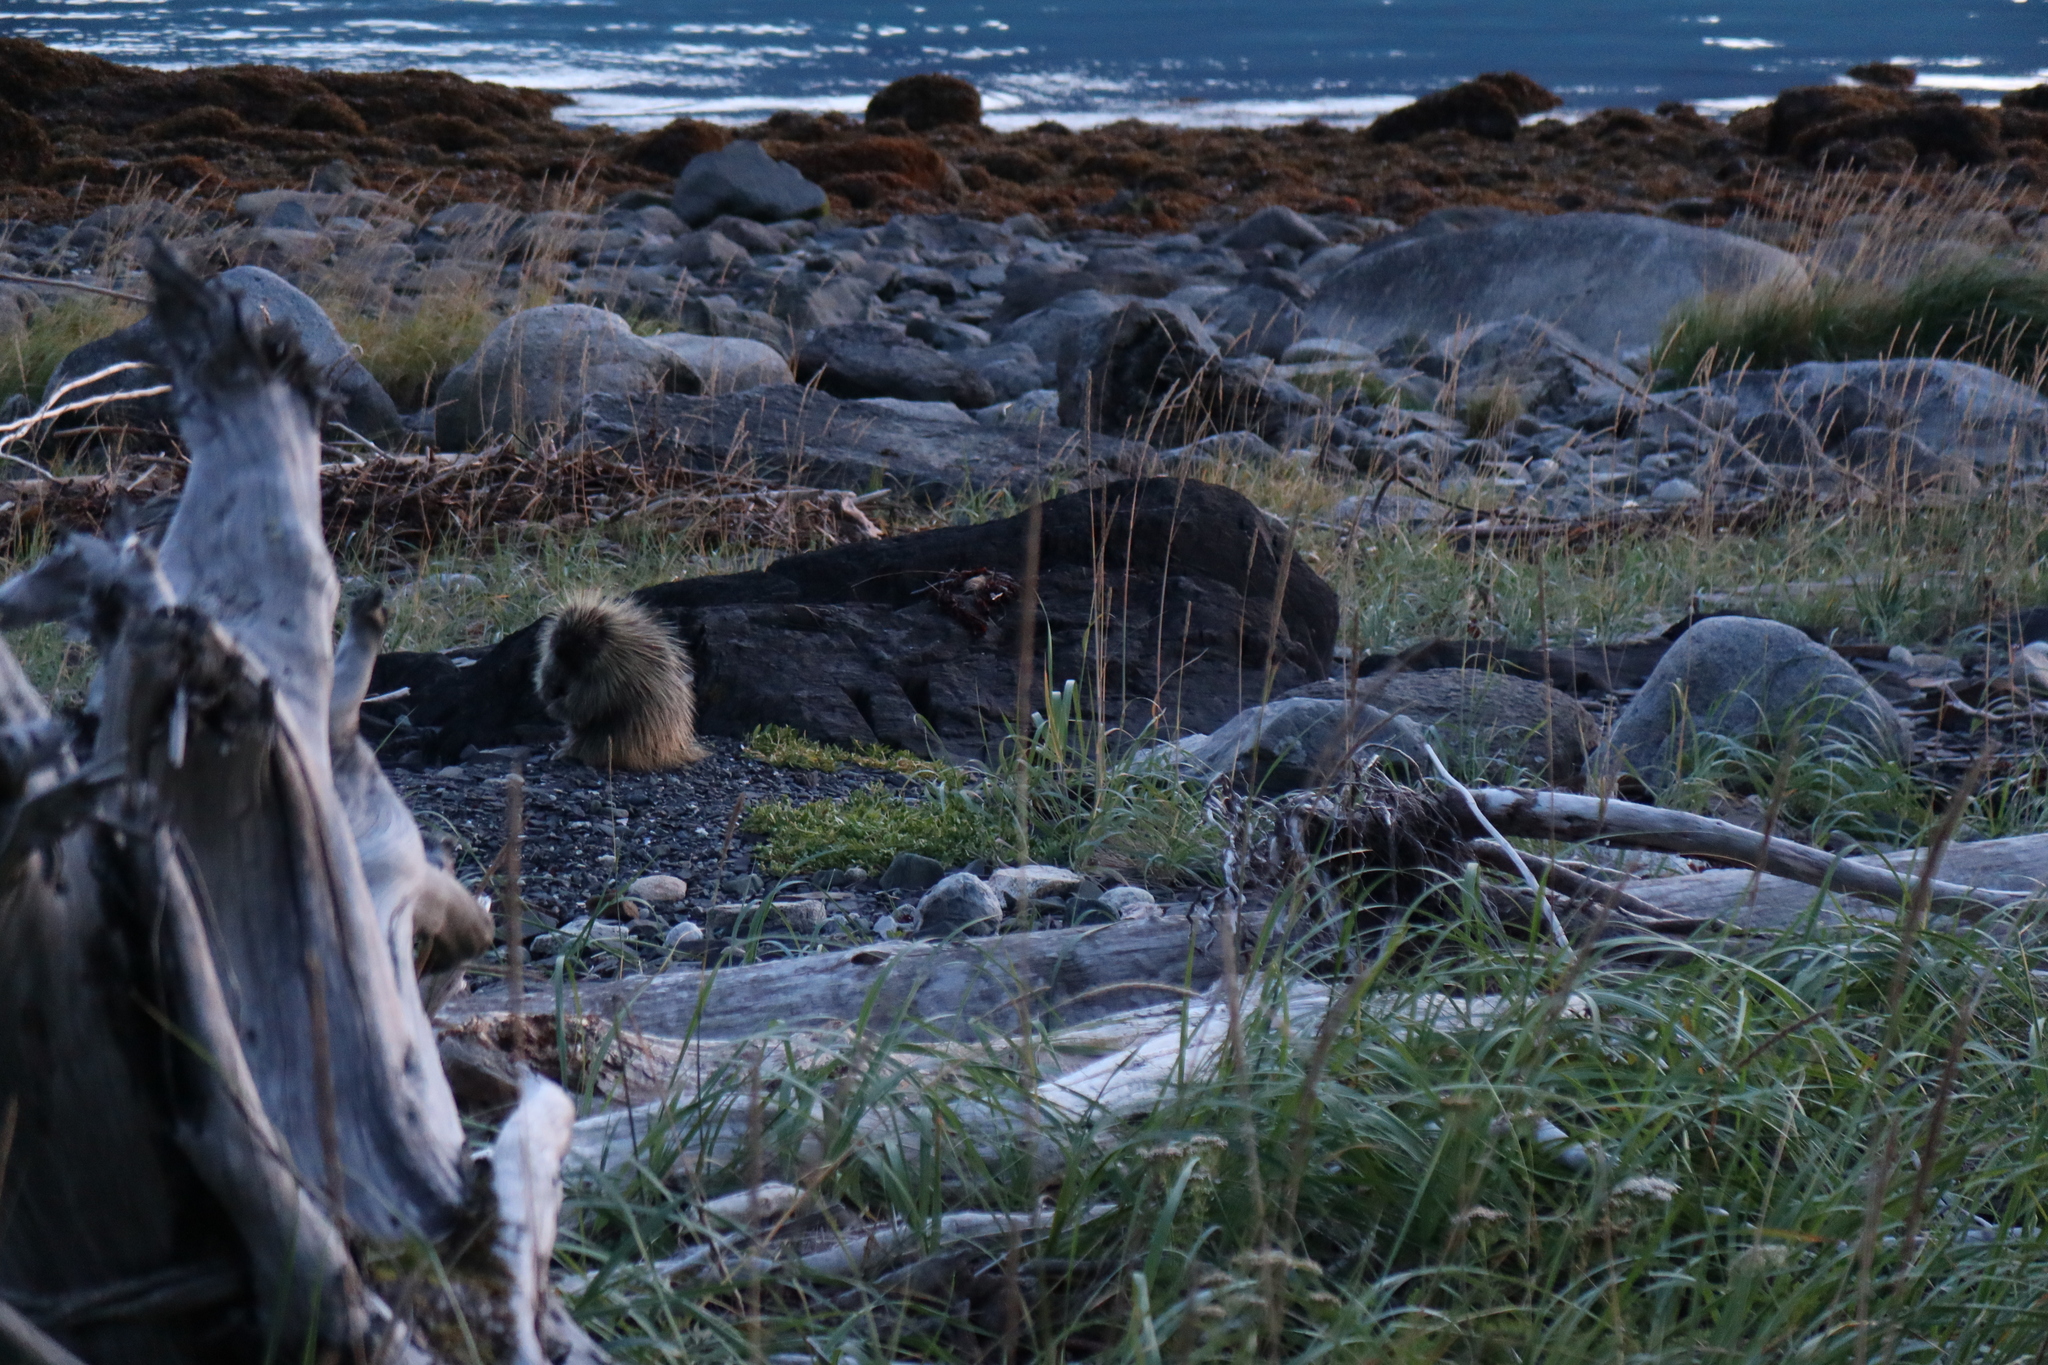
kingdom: Animalia
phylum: Chordata
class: Mammalia
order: Rodentia
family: Erethizontidae
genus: Erethizon
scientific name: Erethizon dorsatus
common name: North american porcupine
